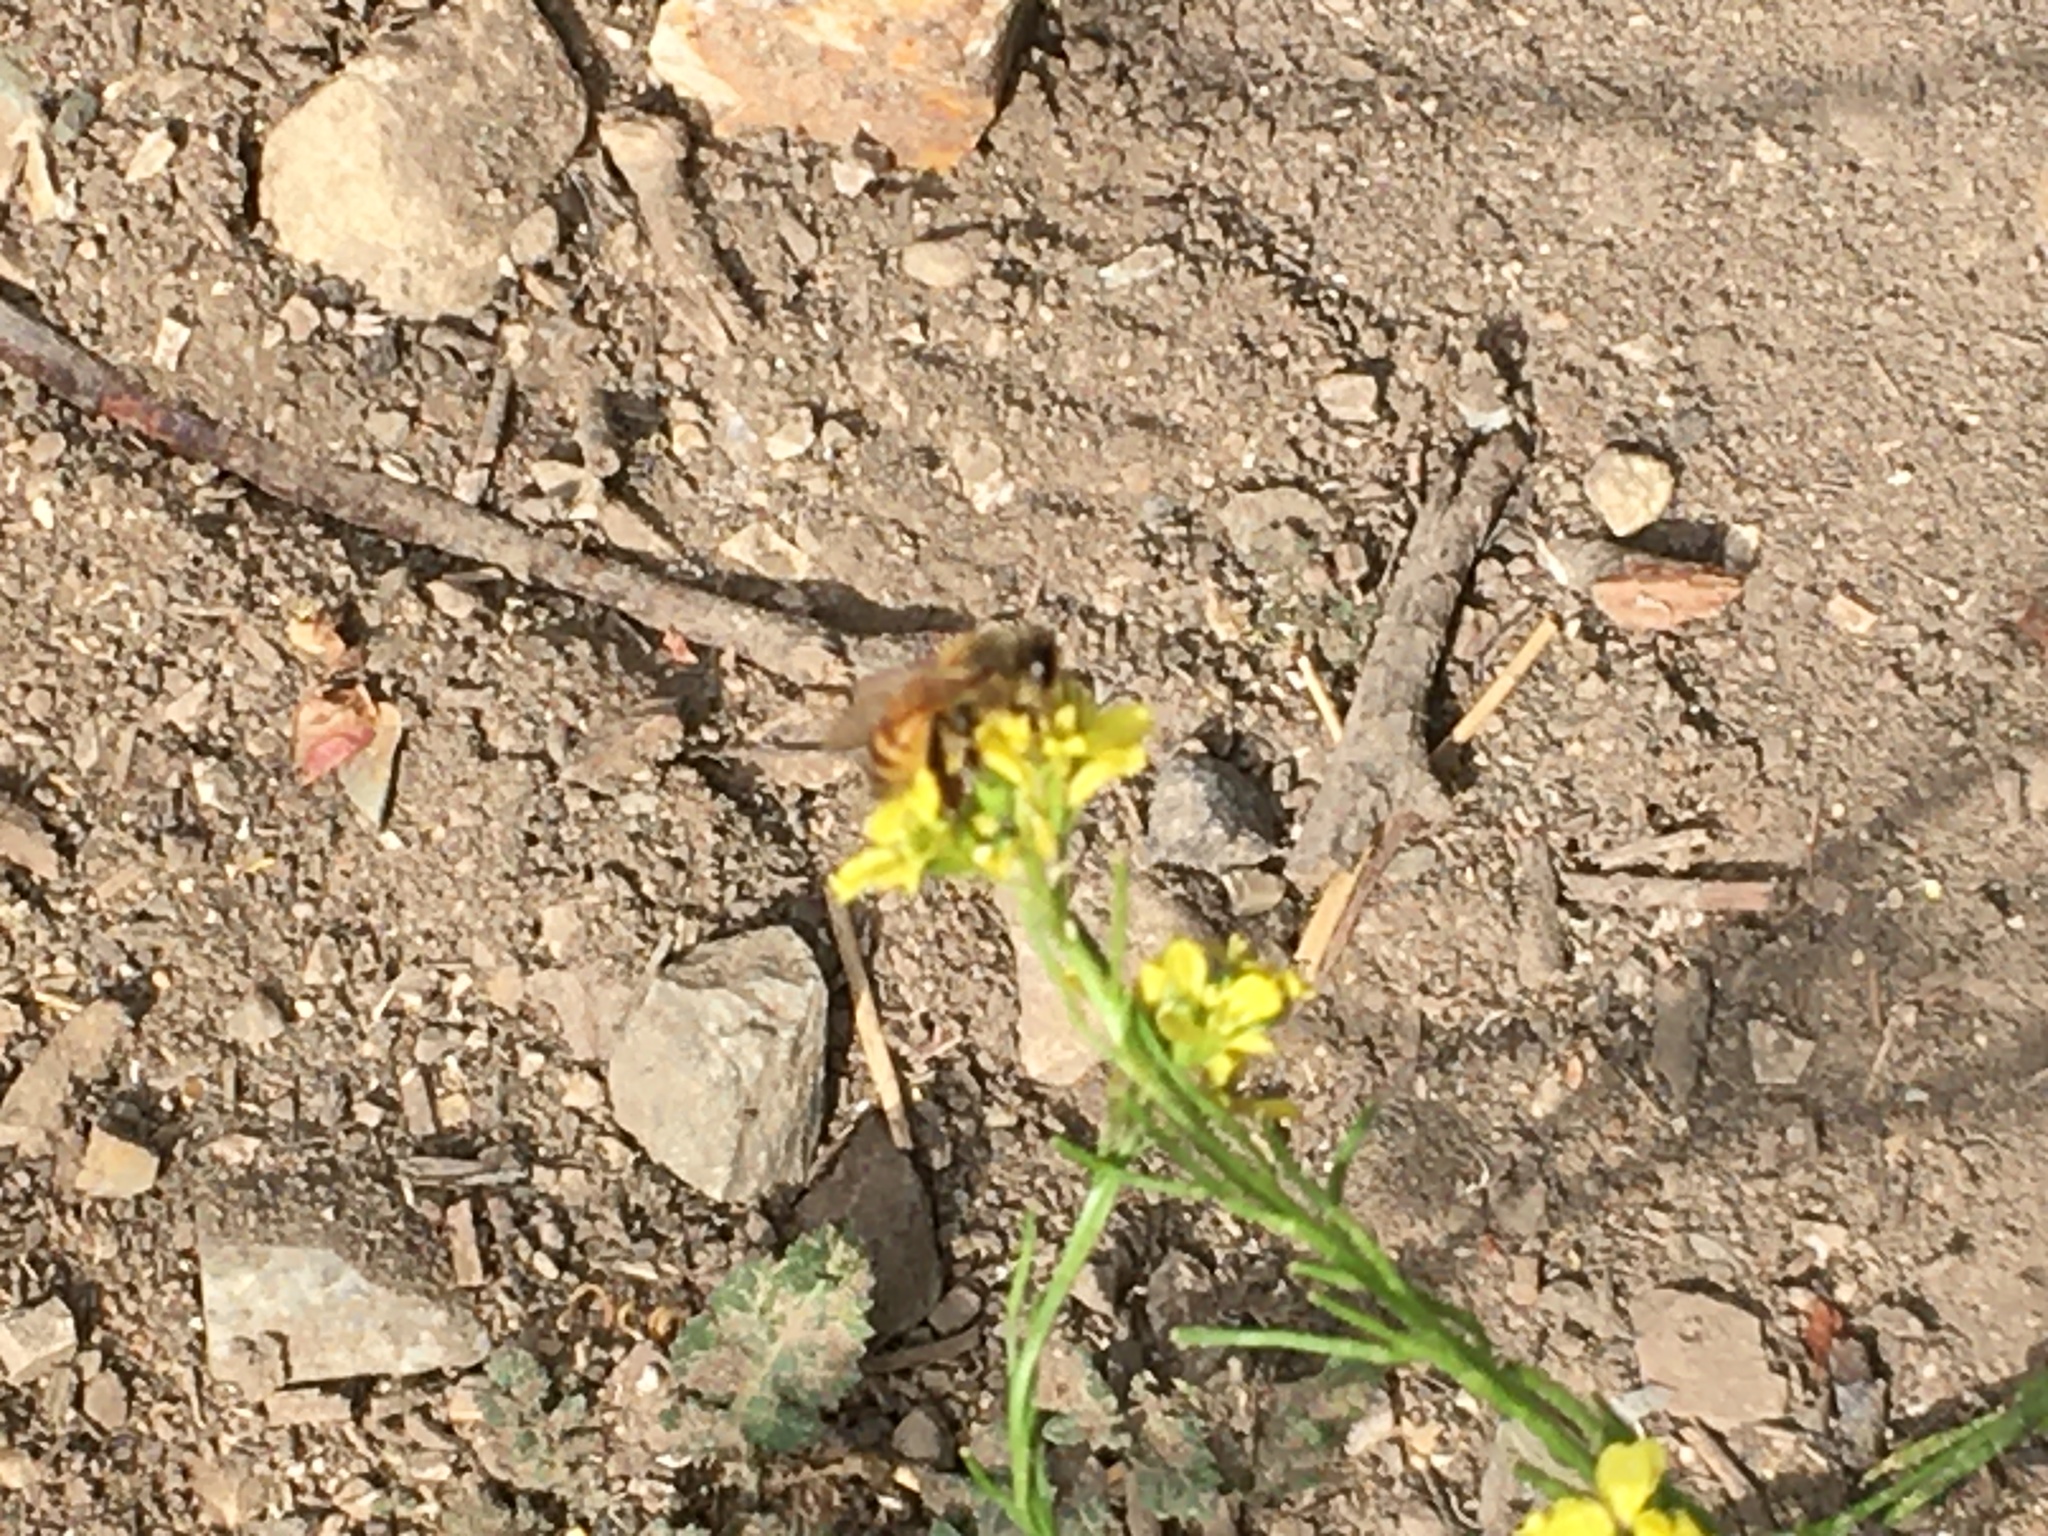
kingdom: Animalia
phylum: Arthropoda
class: Insecta
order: Hymenoptera
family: Apidae
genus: Apis
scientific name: Apis mellifera
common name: Honey bee
